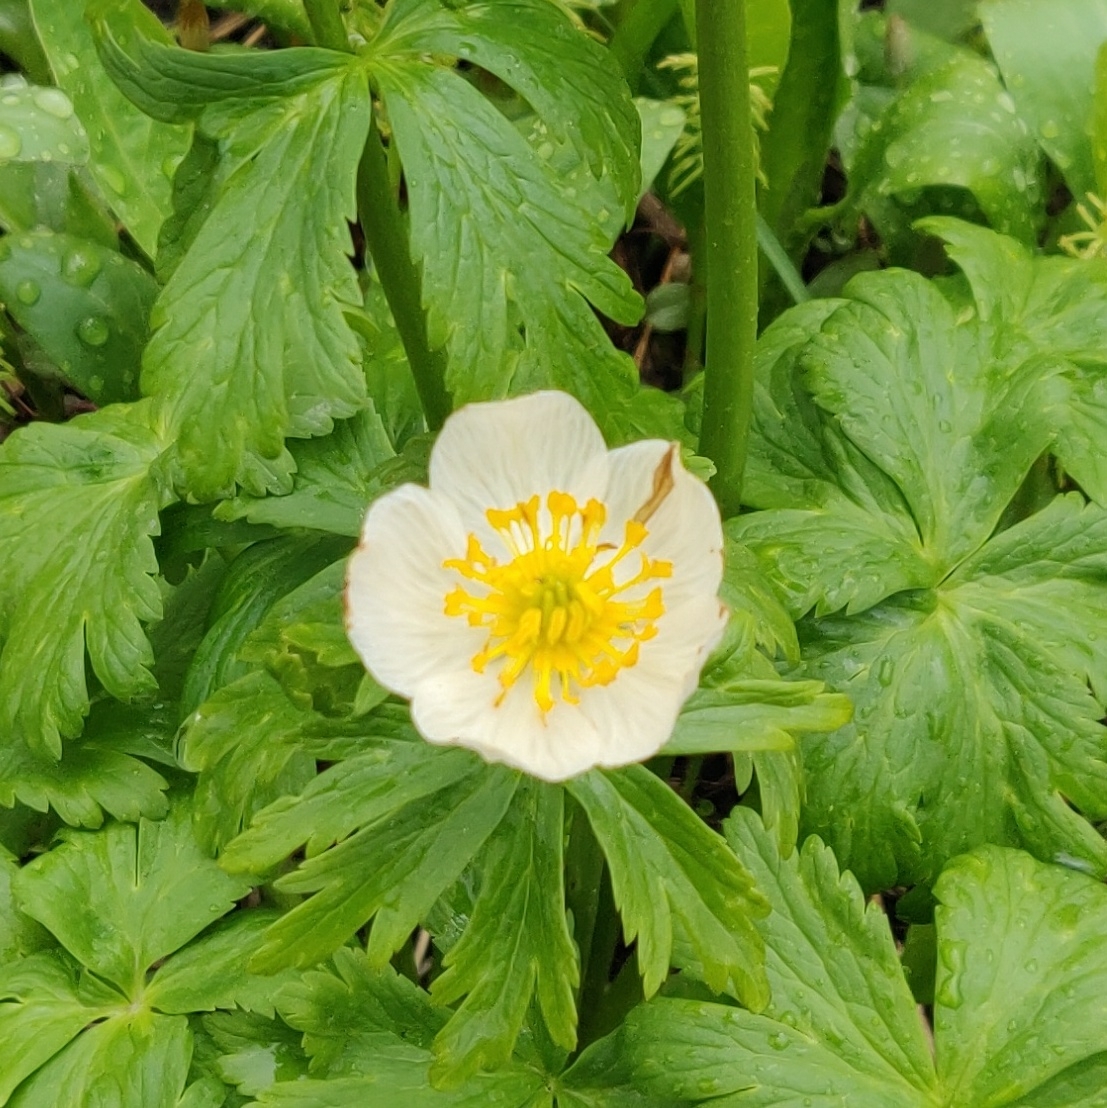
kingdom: Plantae
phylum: Tracheophyta
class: Magnoliopsida
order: Ranunculales
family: Ranunculaceae
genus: Trollius
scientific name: Trollius laxus
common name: American globeflower
